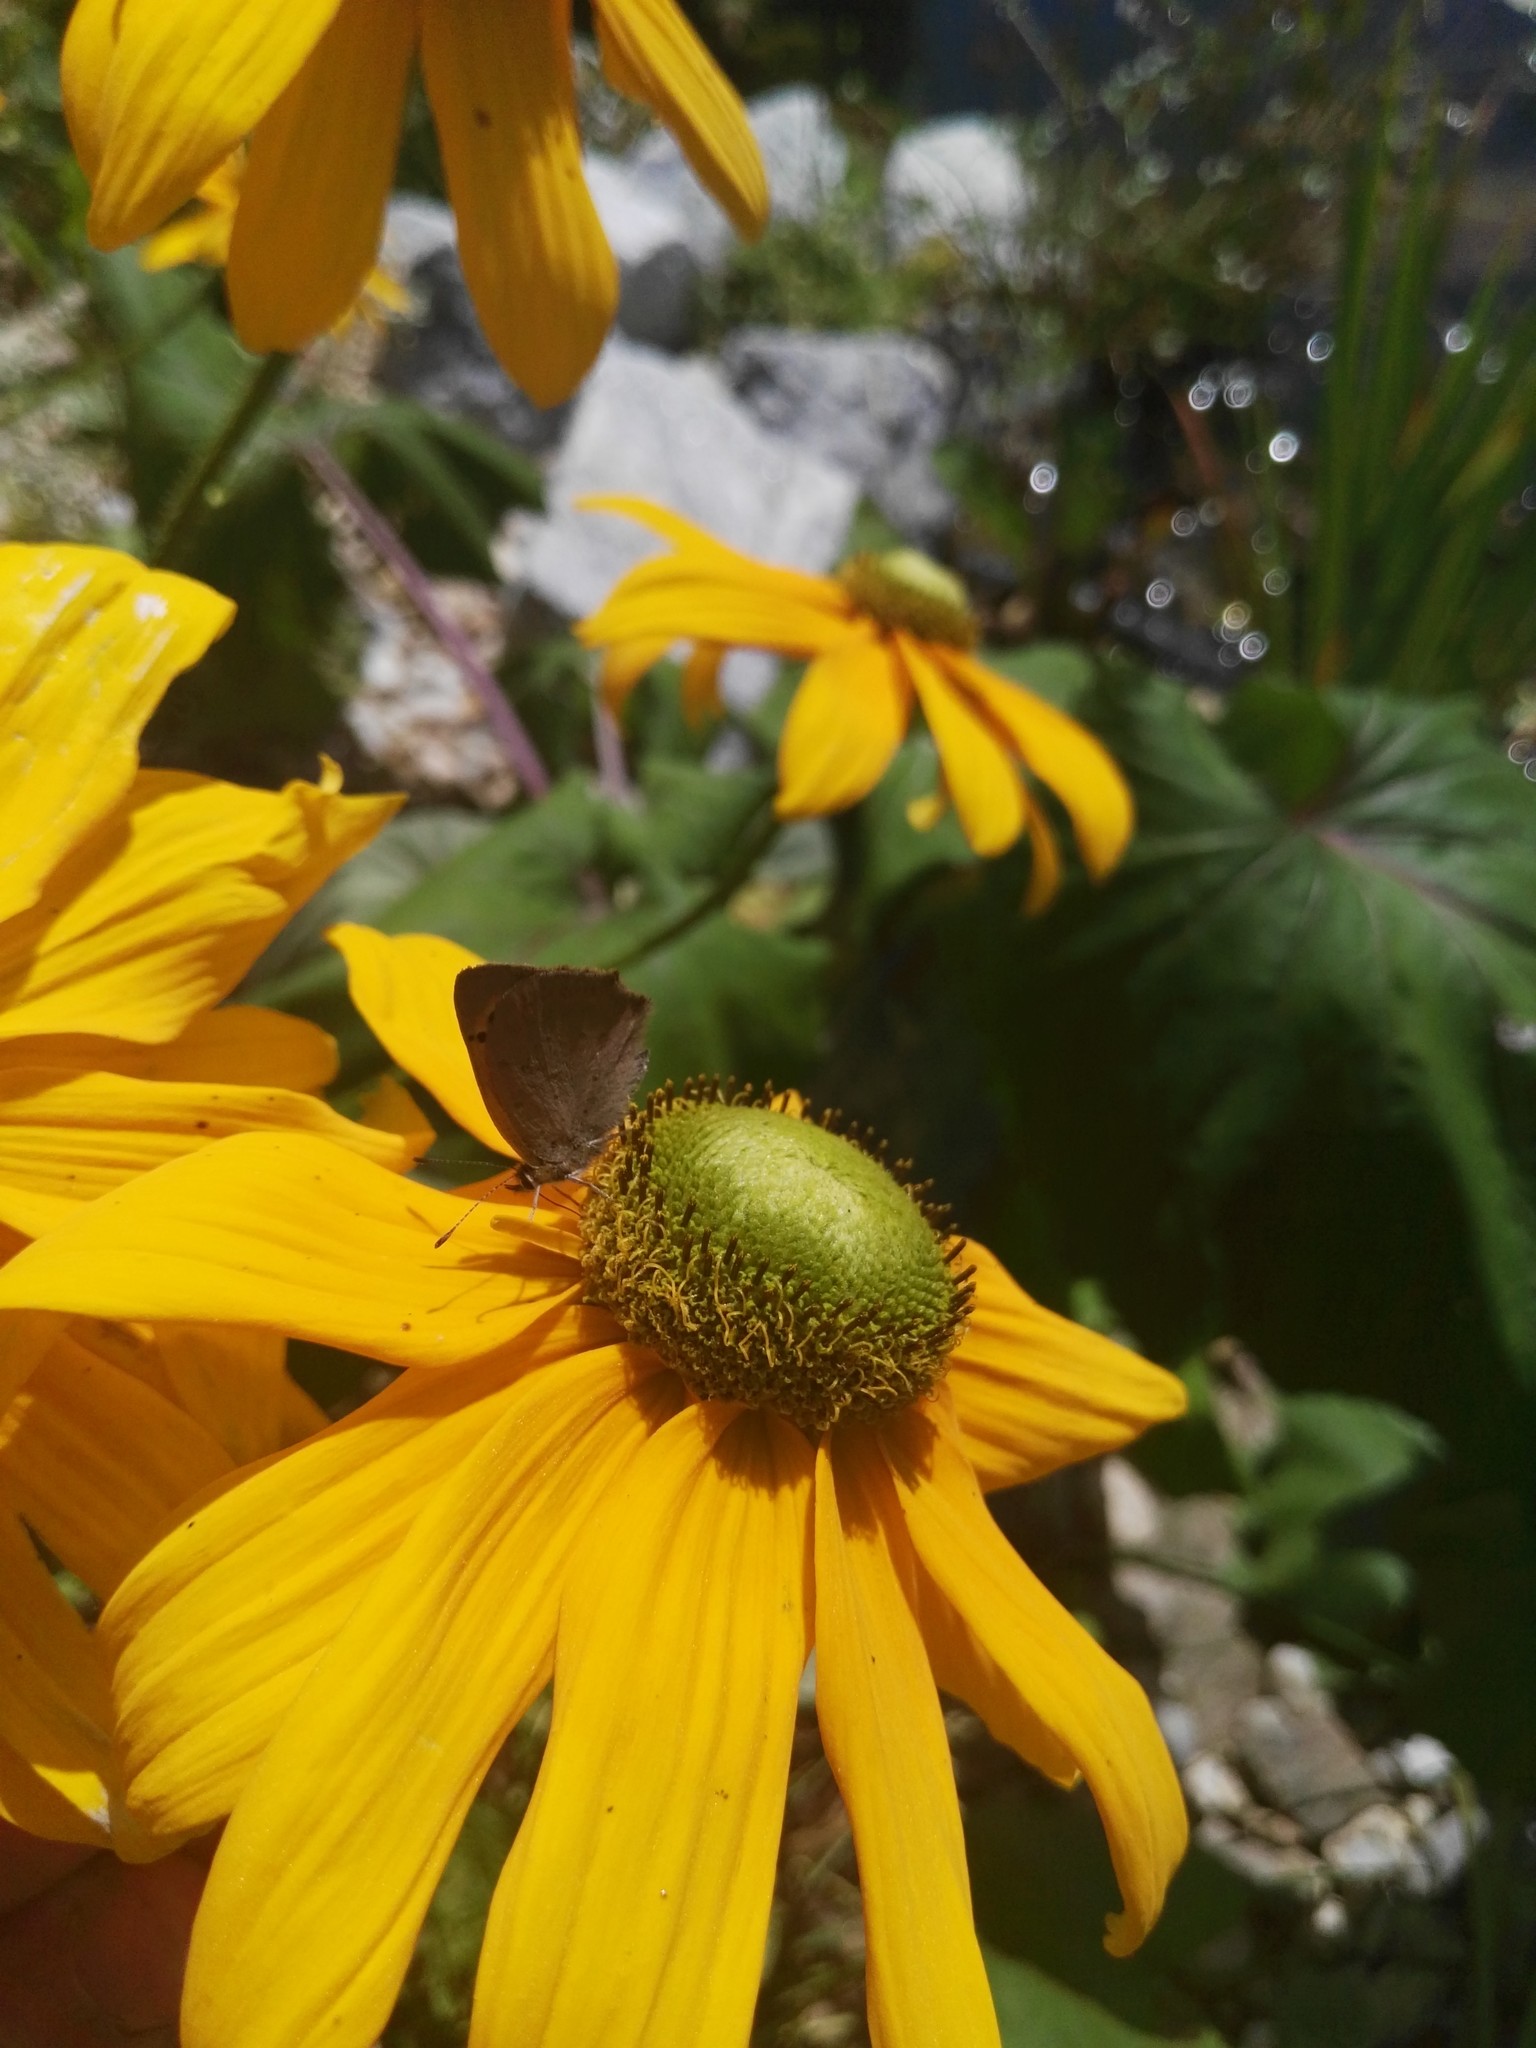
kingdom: Animalia
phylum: Arthropoda
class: Insecta
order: Lepidoptera
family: Lycaenidae
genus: Lycaena
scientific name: Lycaena phlaeas
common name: Small copper
